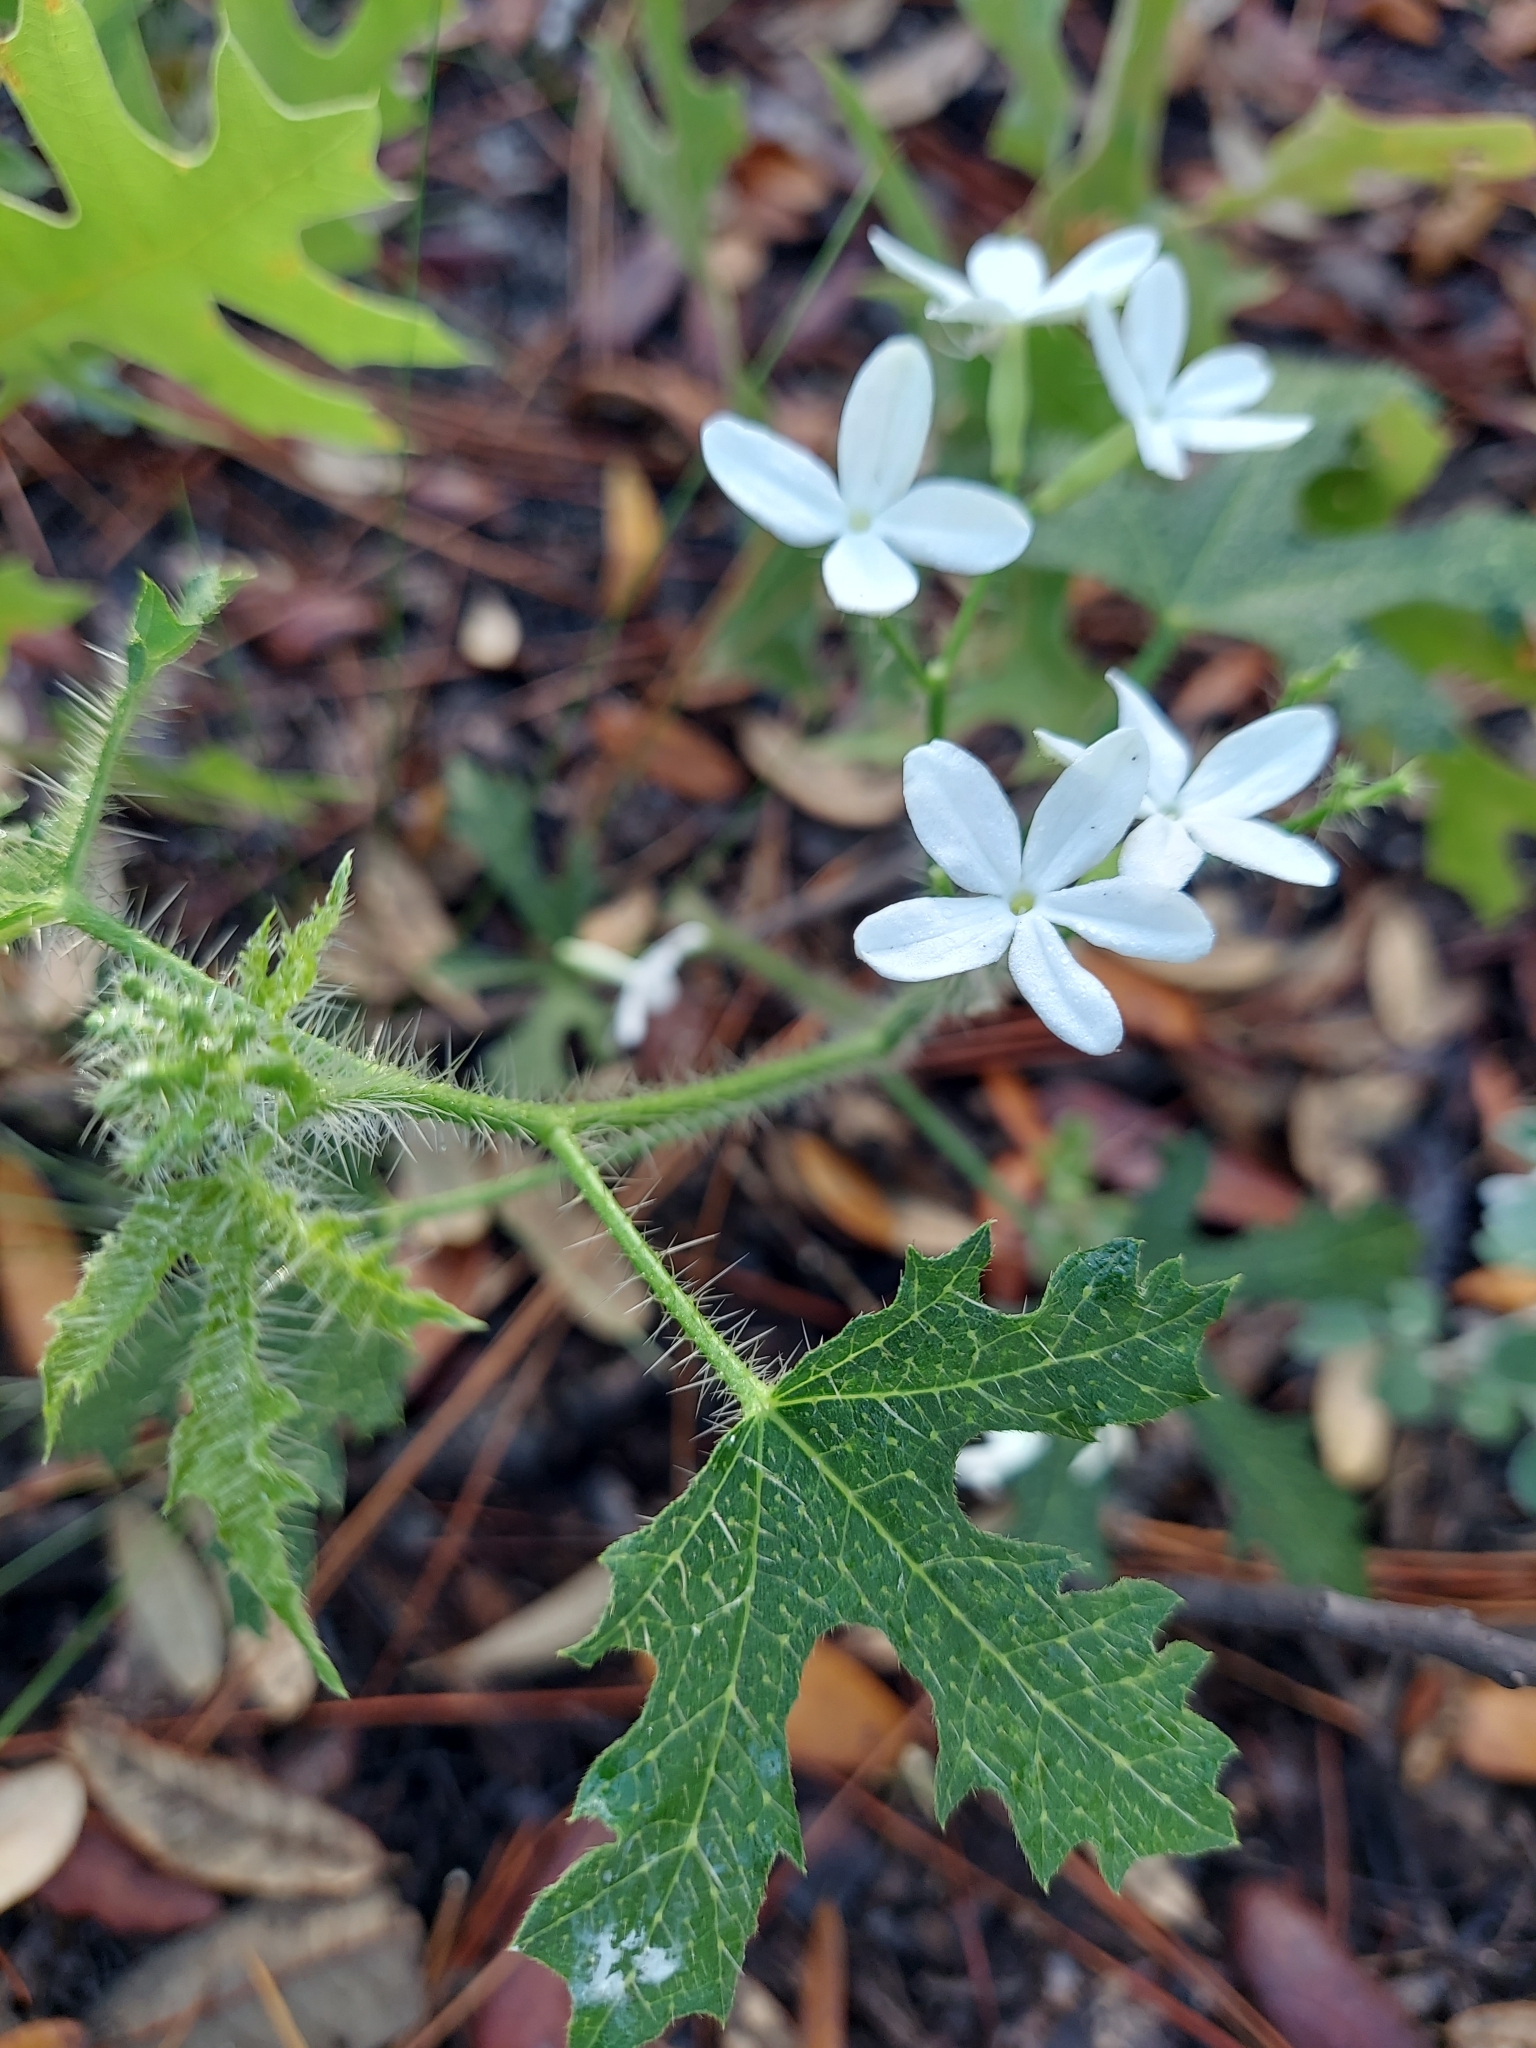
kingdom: Plantae
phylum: Tracheophyta
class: Magnoliopsida
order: Malpighiales
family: Euphorbiaceae
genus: Cnidoscolus
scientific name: Cnidoscolus stimulosus
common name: Bull-nettle
